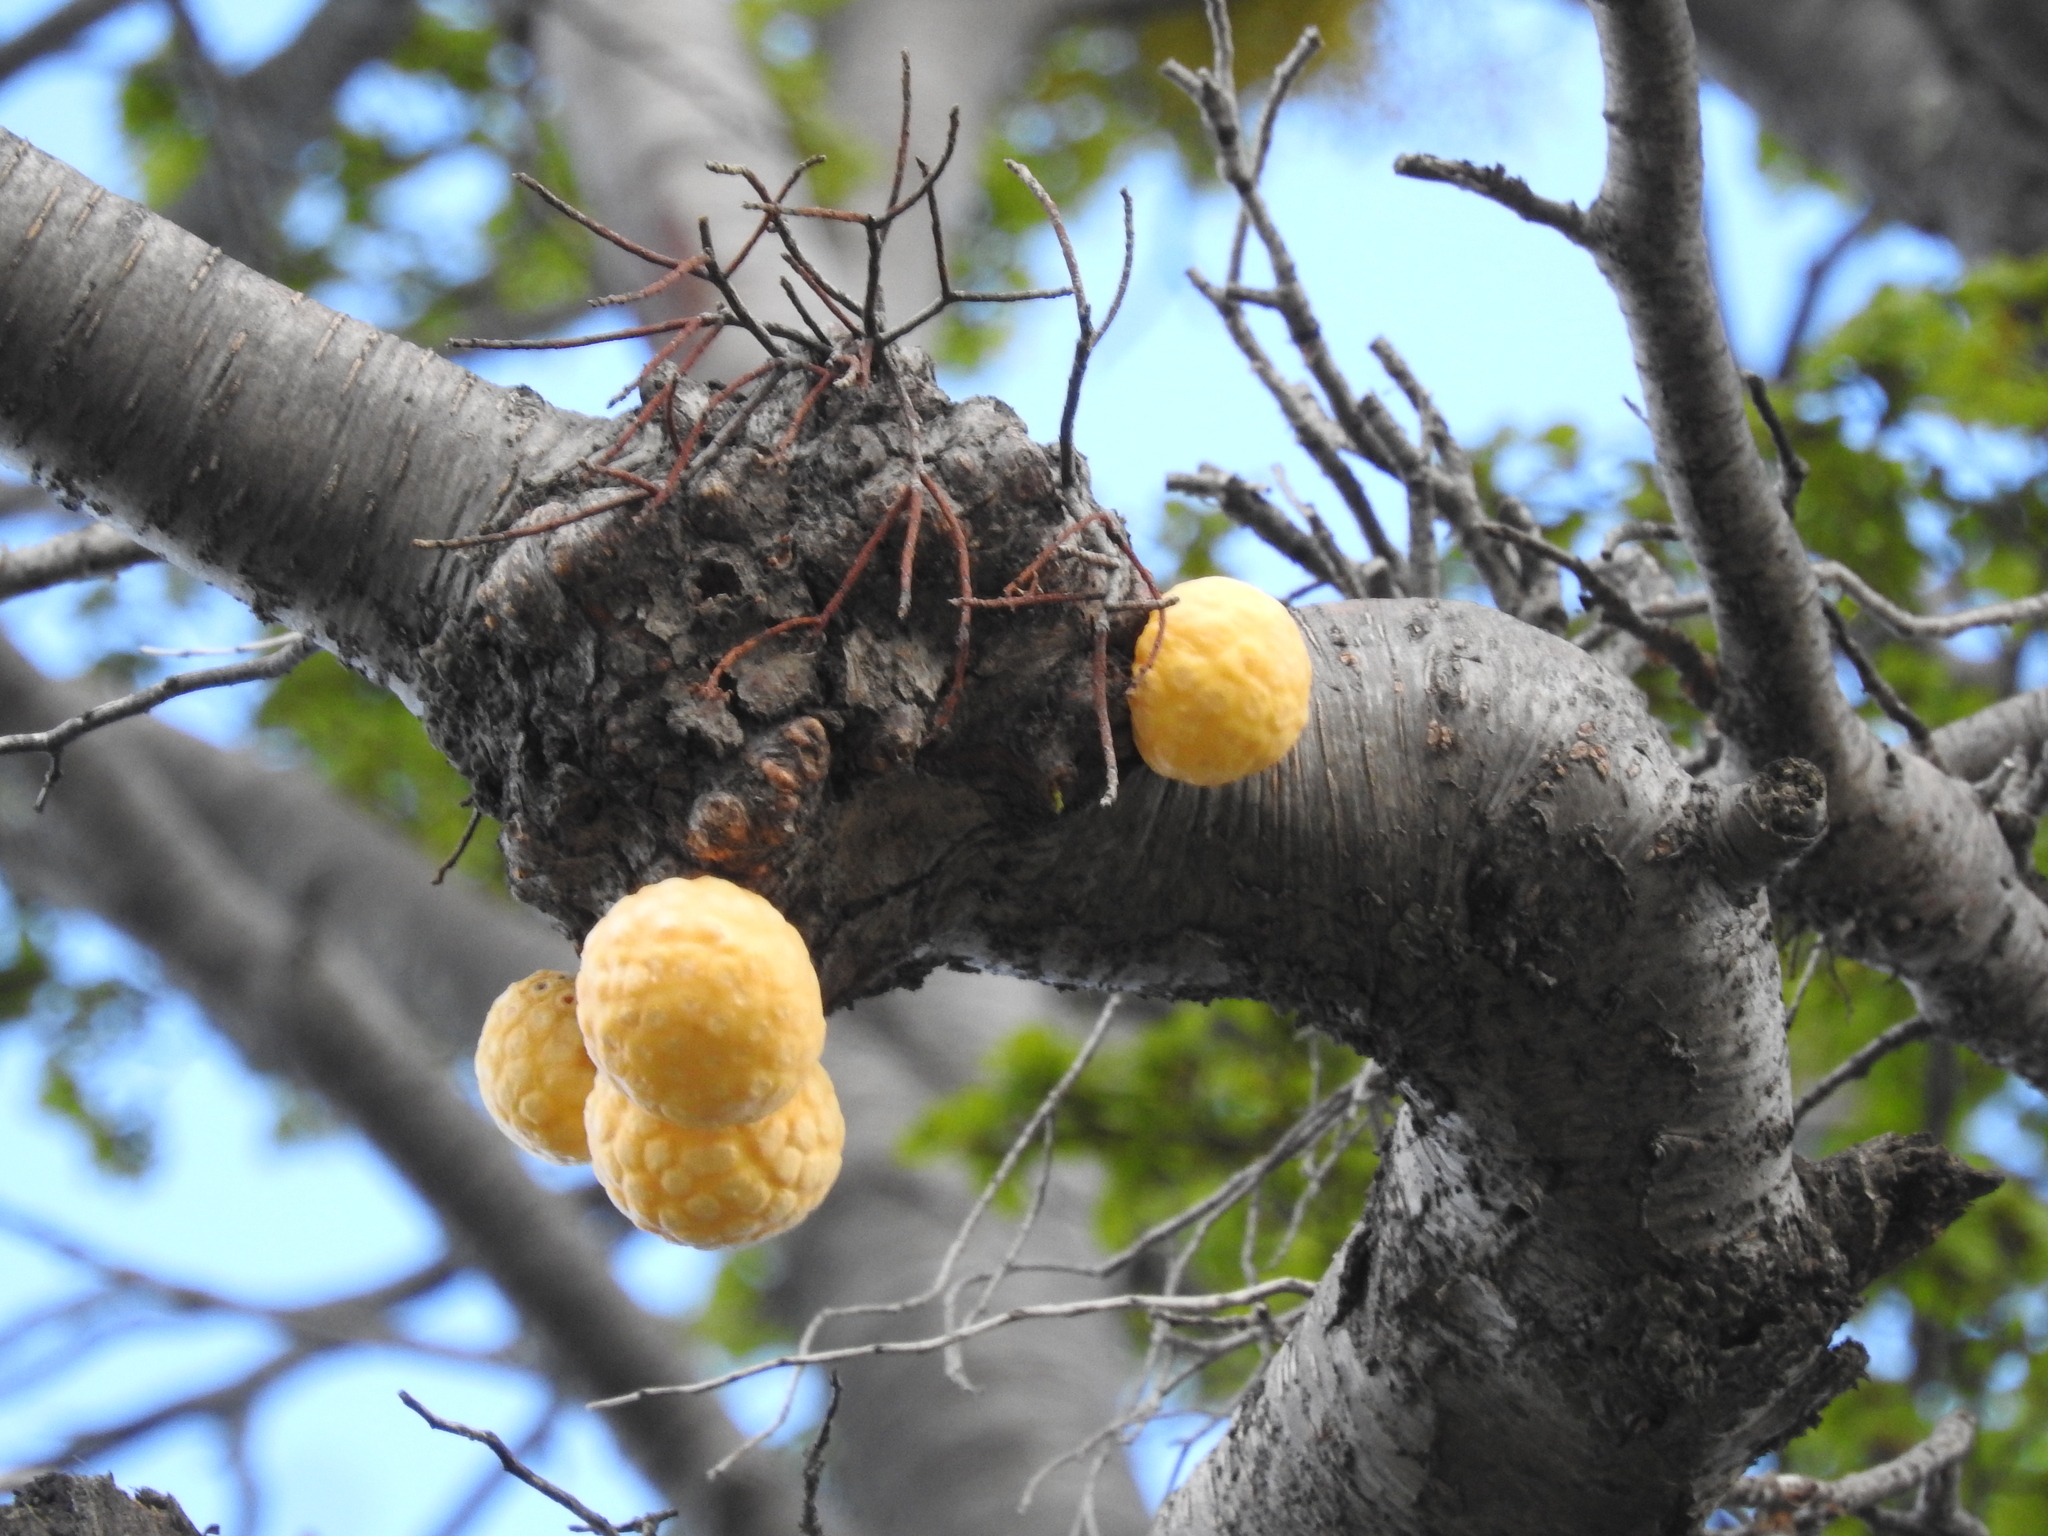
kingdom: Fungi
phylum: Ascomycota
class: Leotiomycetes
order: Cyttariales
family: Cyttariaceae
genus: Cyttaria
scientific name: Cyttaria hariotii
